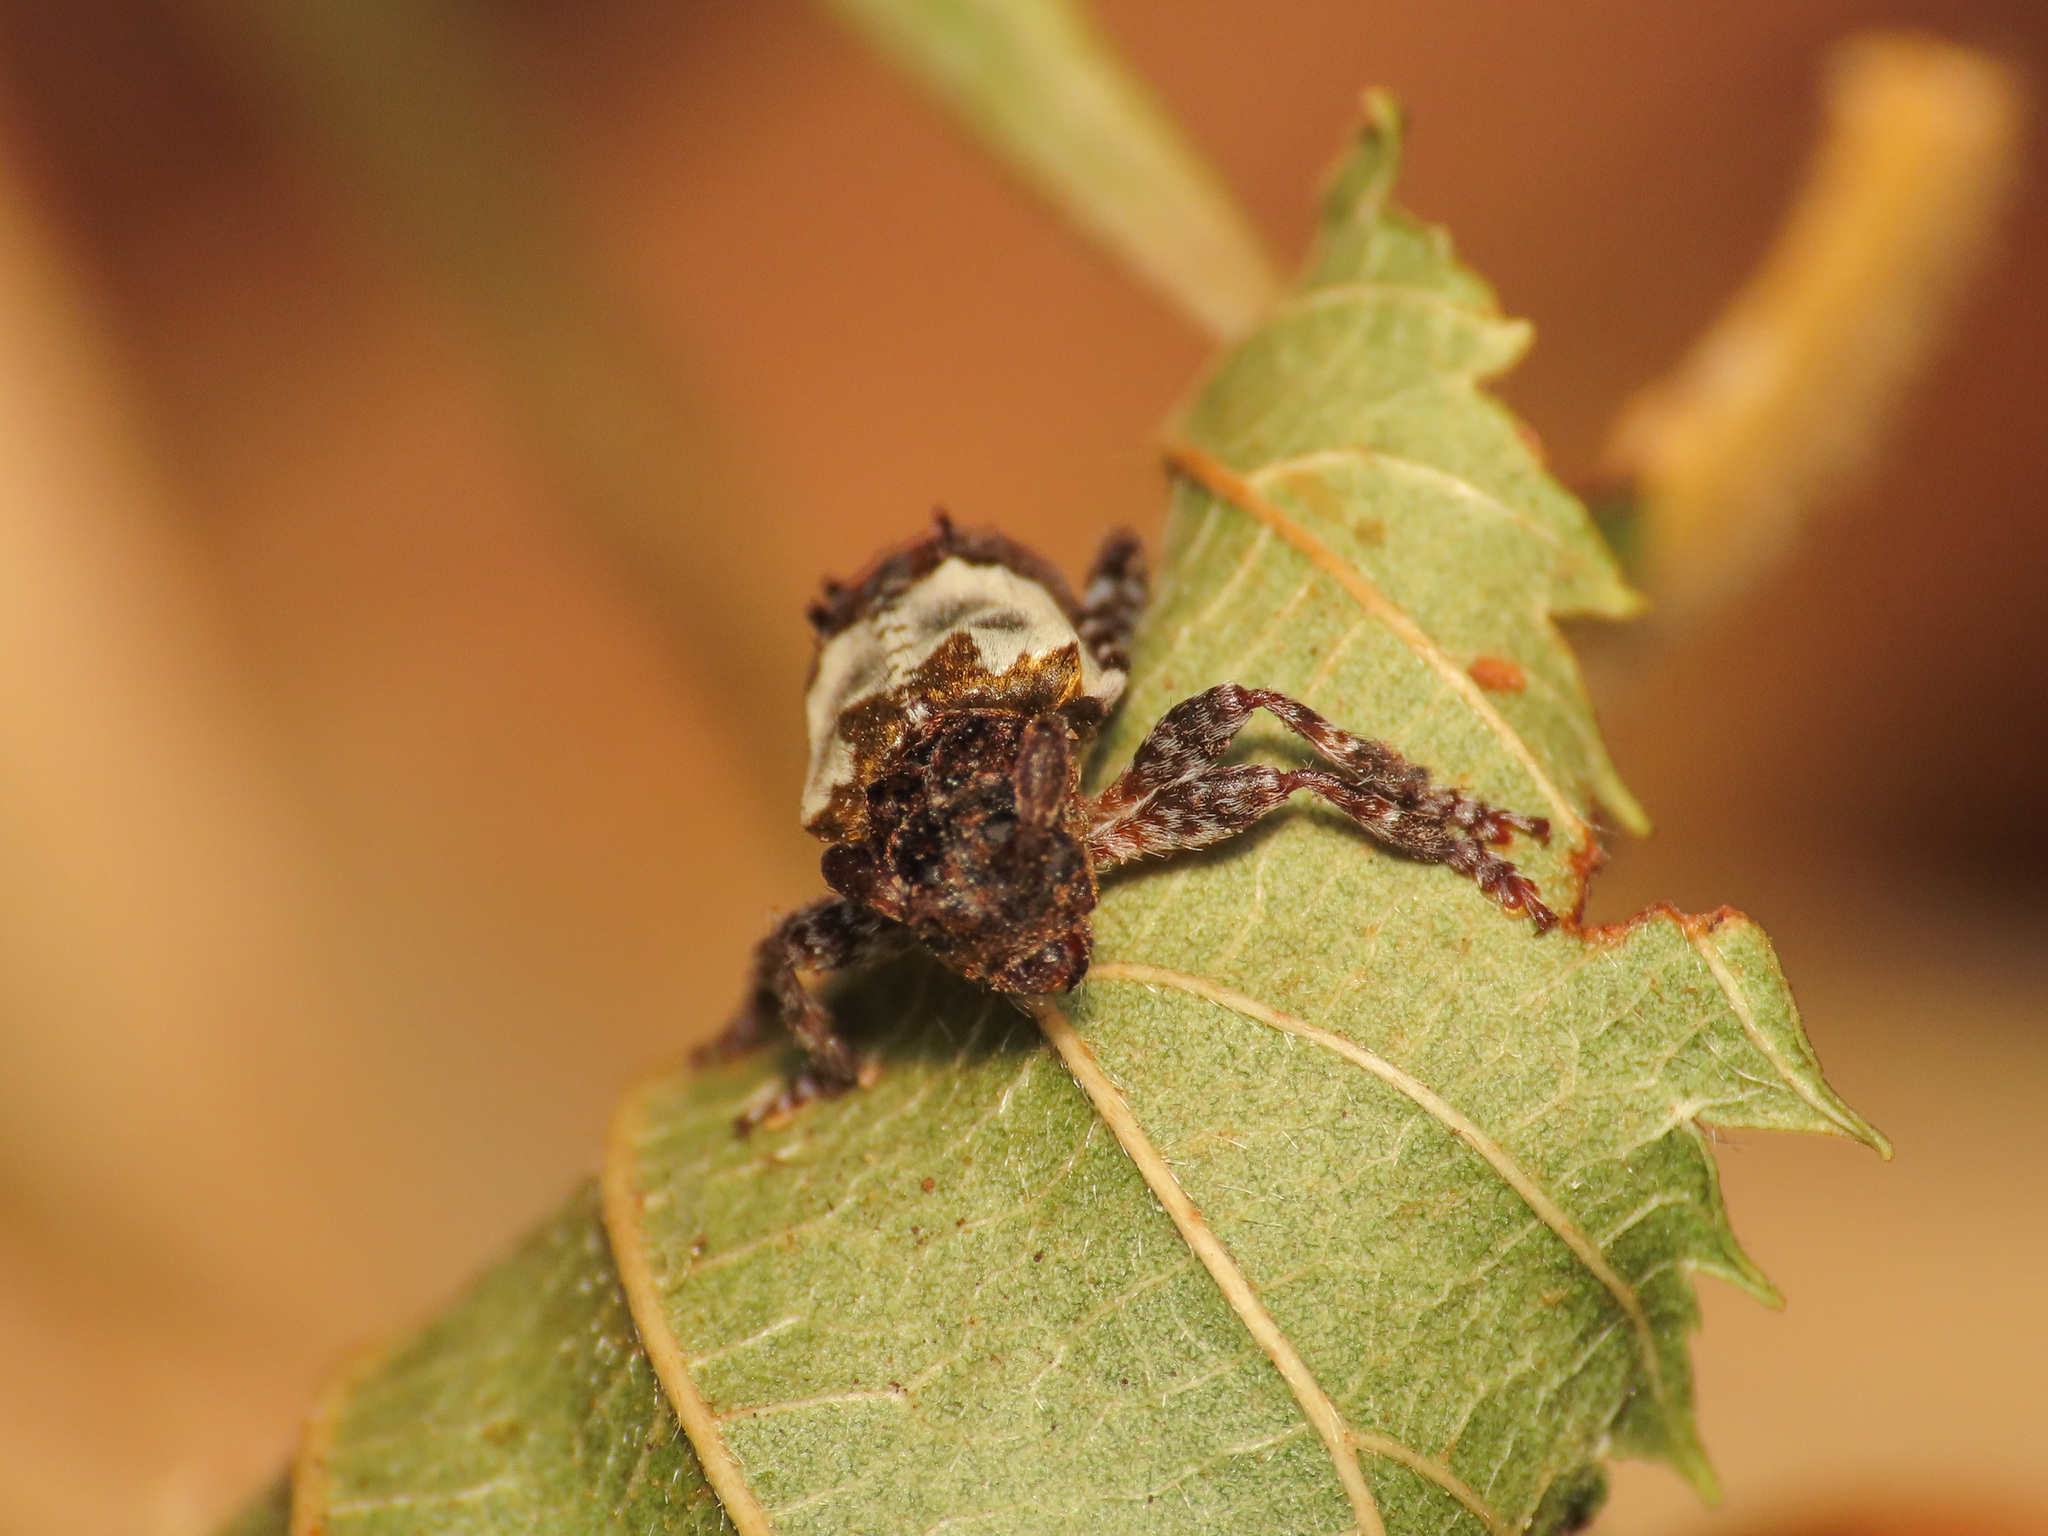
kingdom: Animalia
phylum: Arthropoda
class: Insecta
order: Coleoptera
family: Cerambycidae
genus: Pogonocherus
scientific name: Pogonocherus hispidulus
